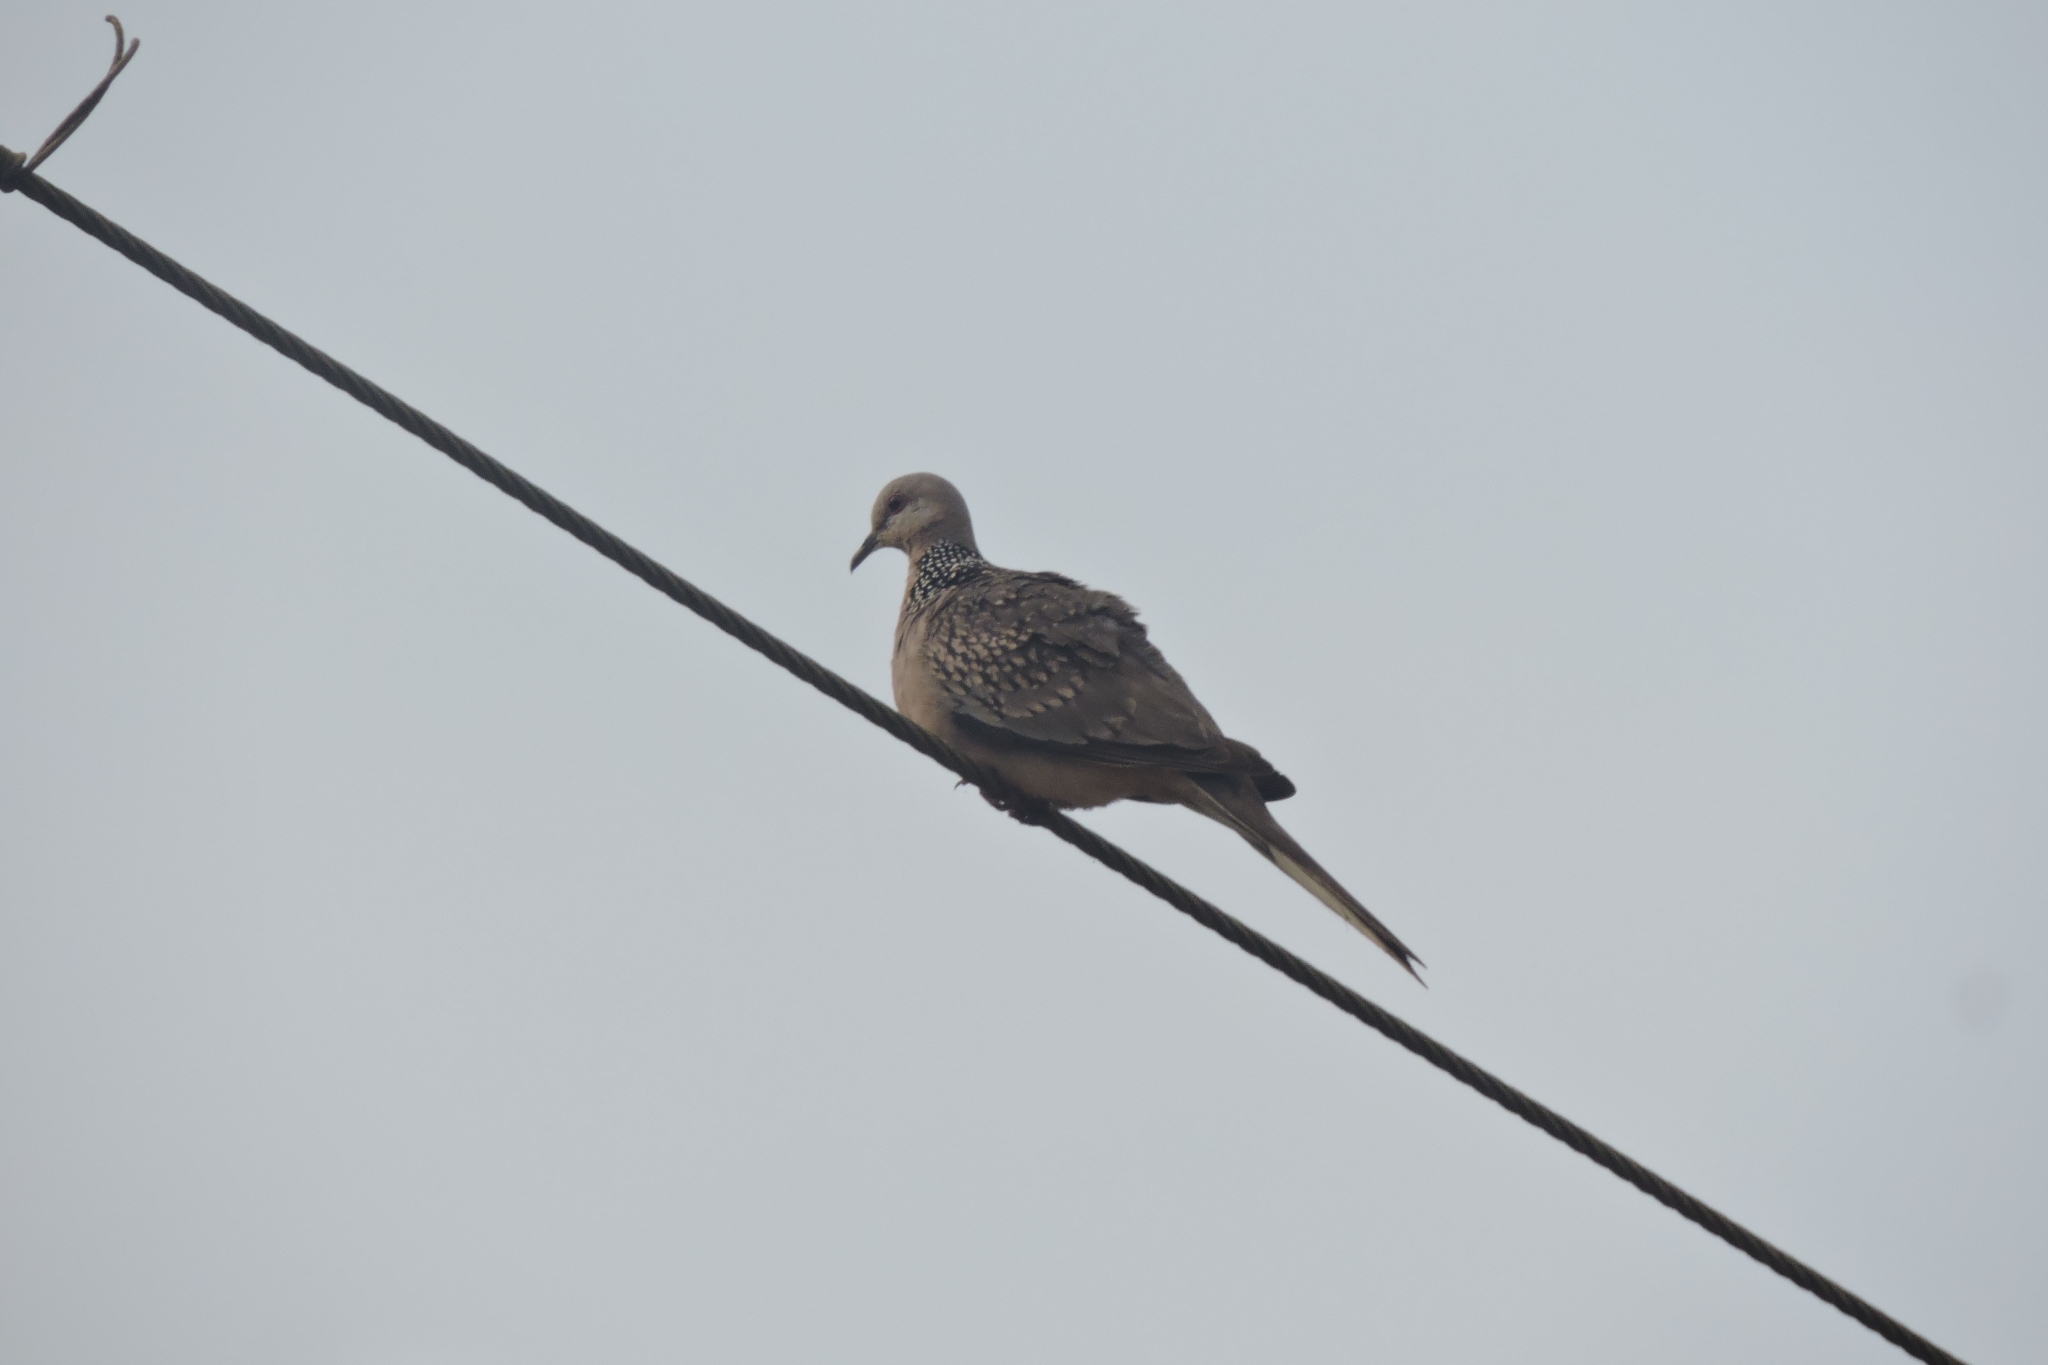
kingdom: Animalia
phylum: Chordata
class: Aves
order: Columbiformes
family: Columbidae
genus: Spilopelia
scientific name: Spilopelia chinensis
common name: Spotted dove
